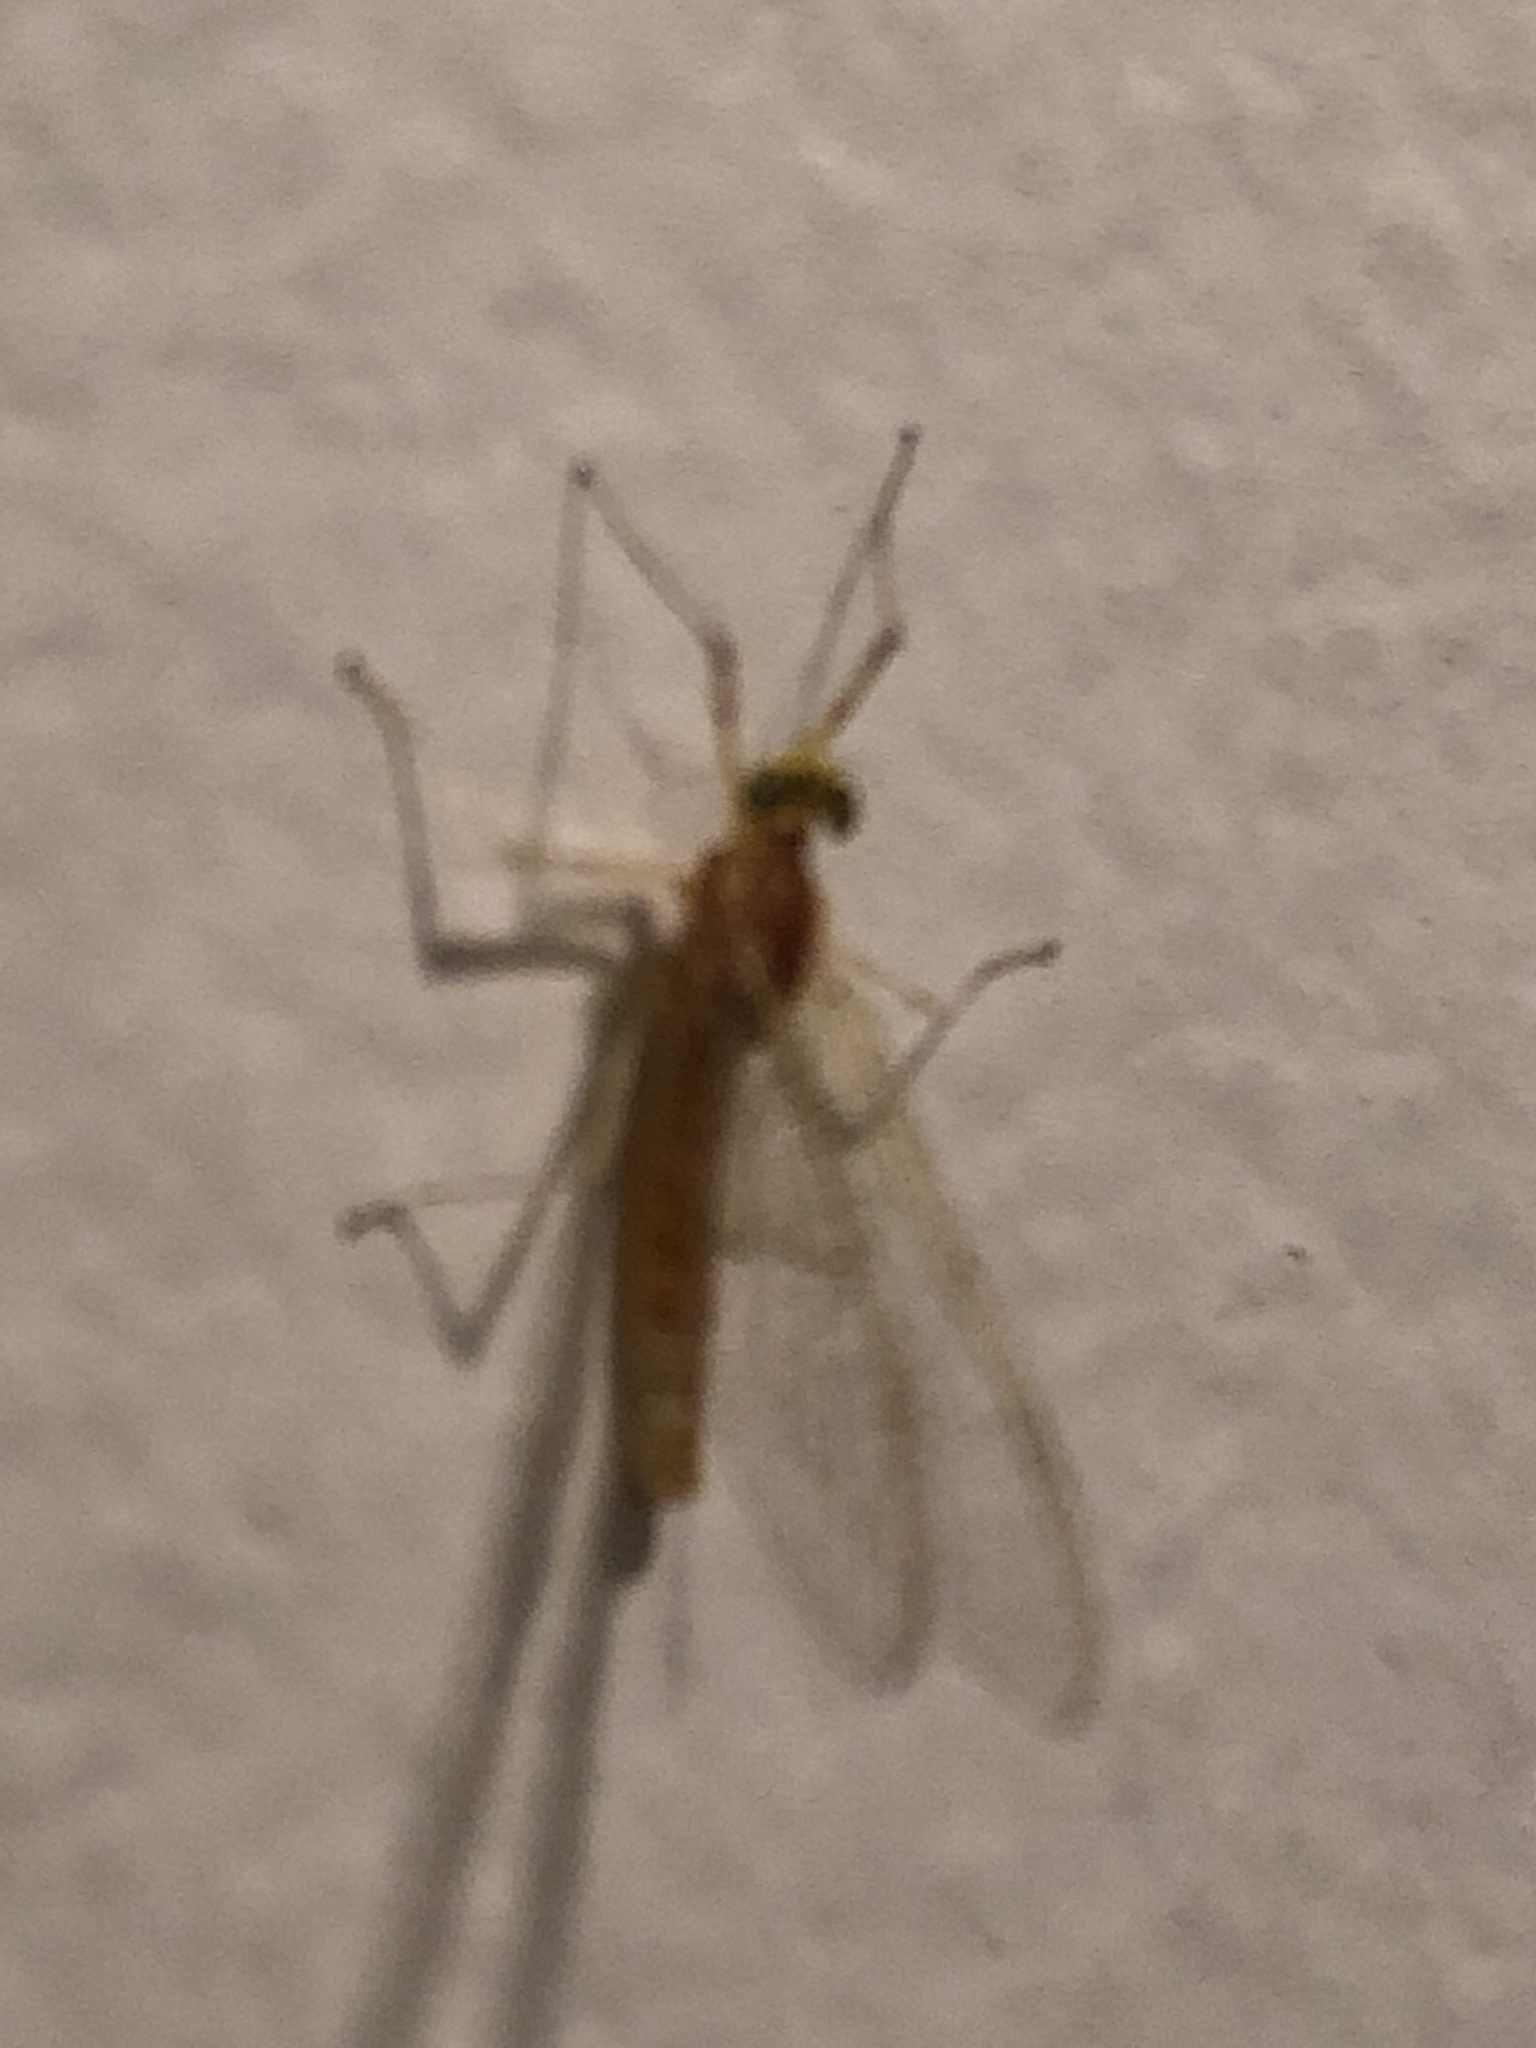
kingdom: Animalia
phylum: Arthropoda
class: Insecta
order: Ephemeroptera
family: Heptageniidae
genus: Stenonema
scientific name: Stenonema femoratum
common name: Dark cahill
